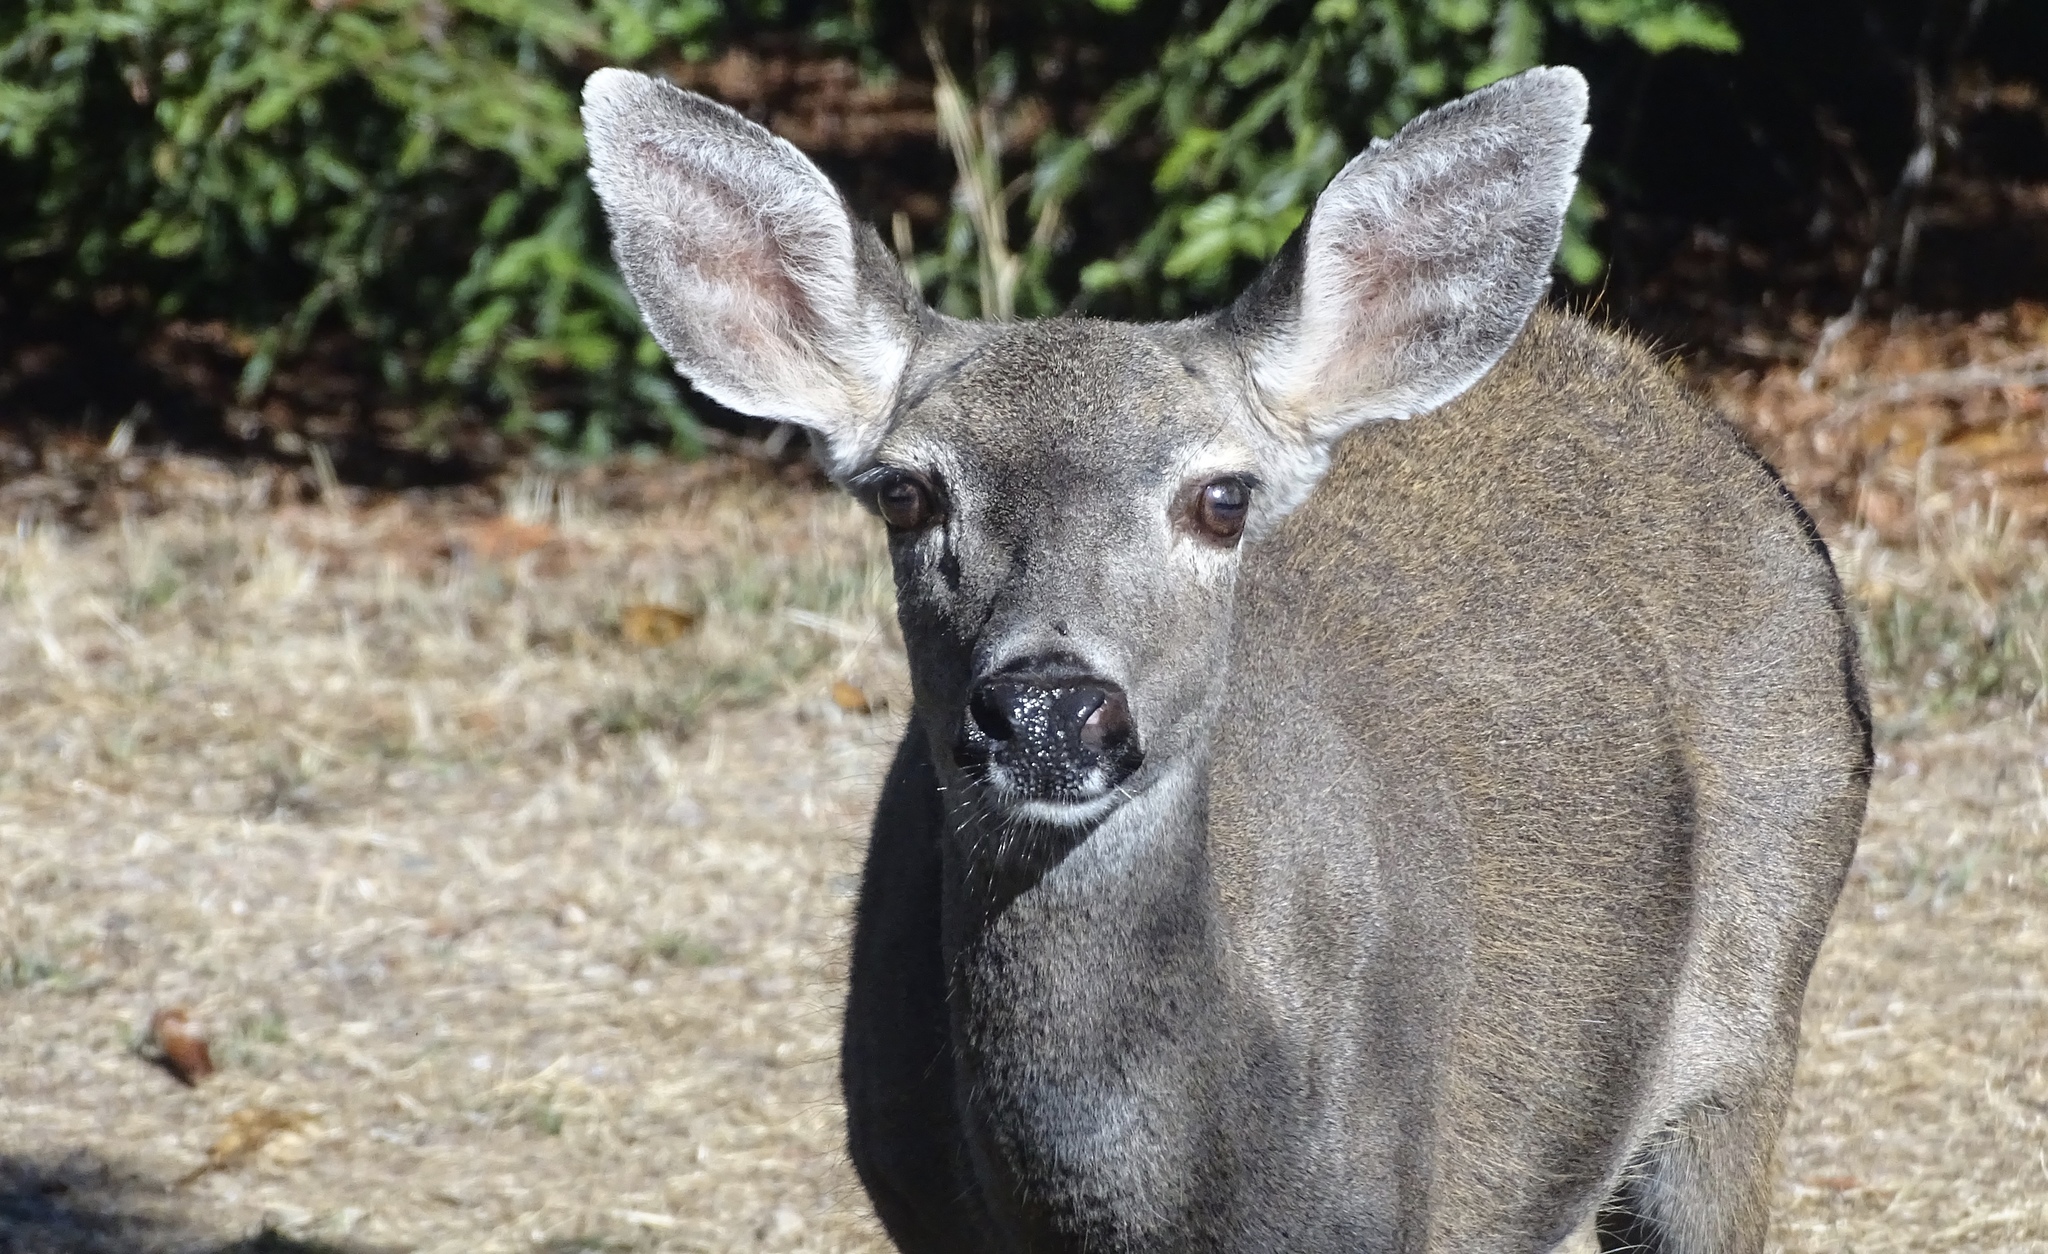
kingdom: Animalia
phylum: Chordata
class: Mammalia
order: Artiodactyla
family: Cervidae
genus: Odocoileus
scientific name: Odocoileus hemionus
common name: Mule deer
